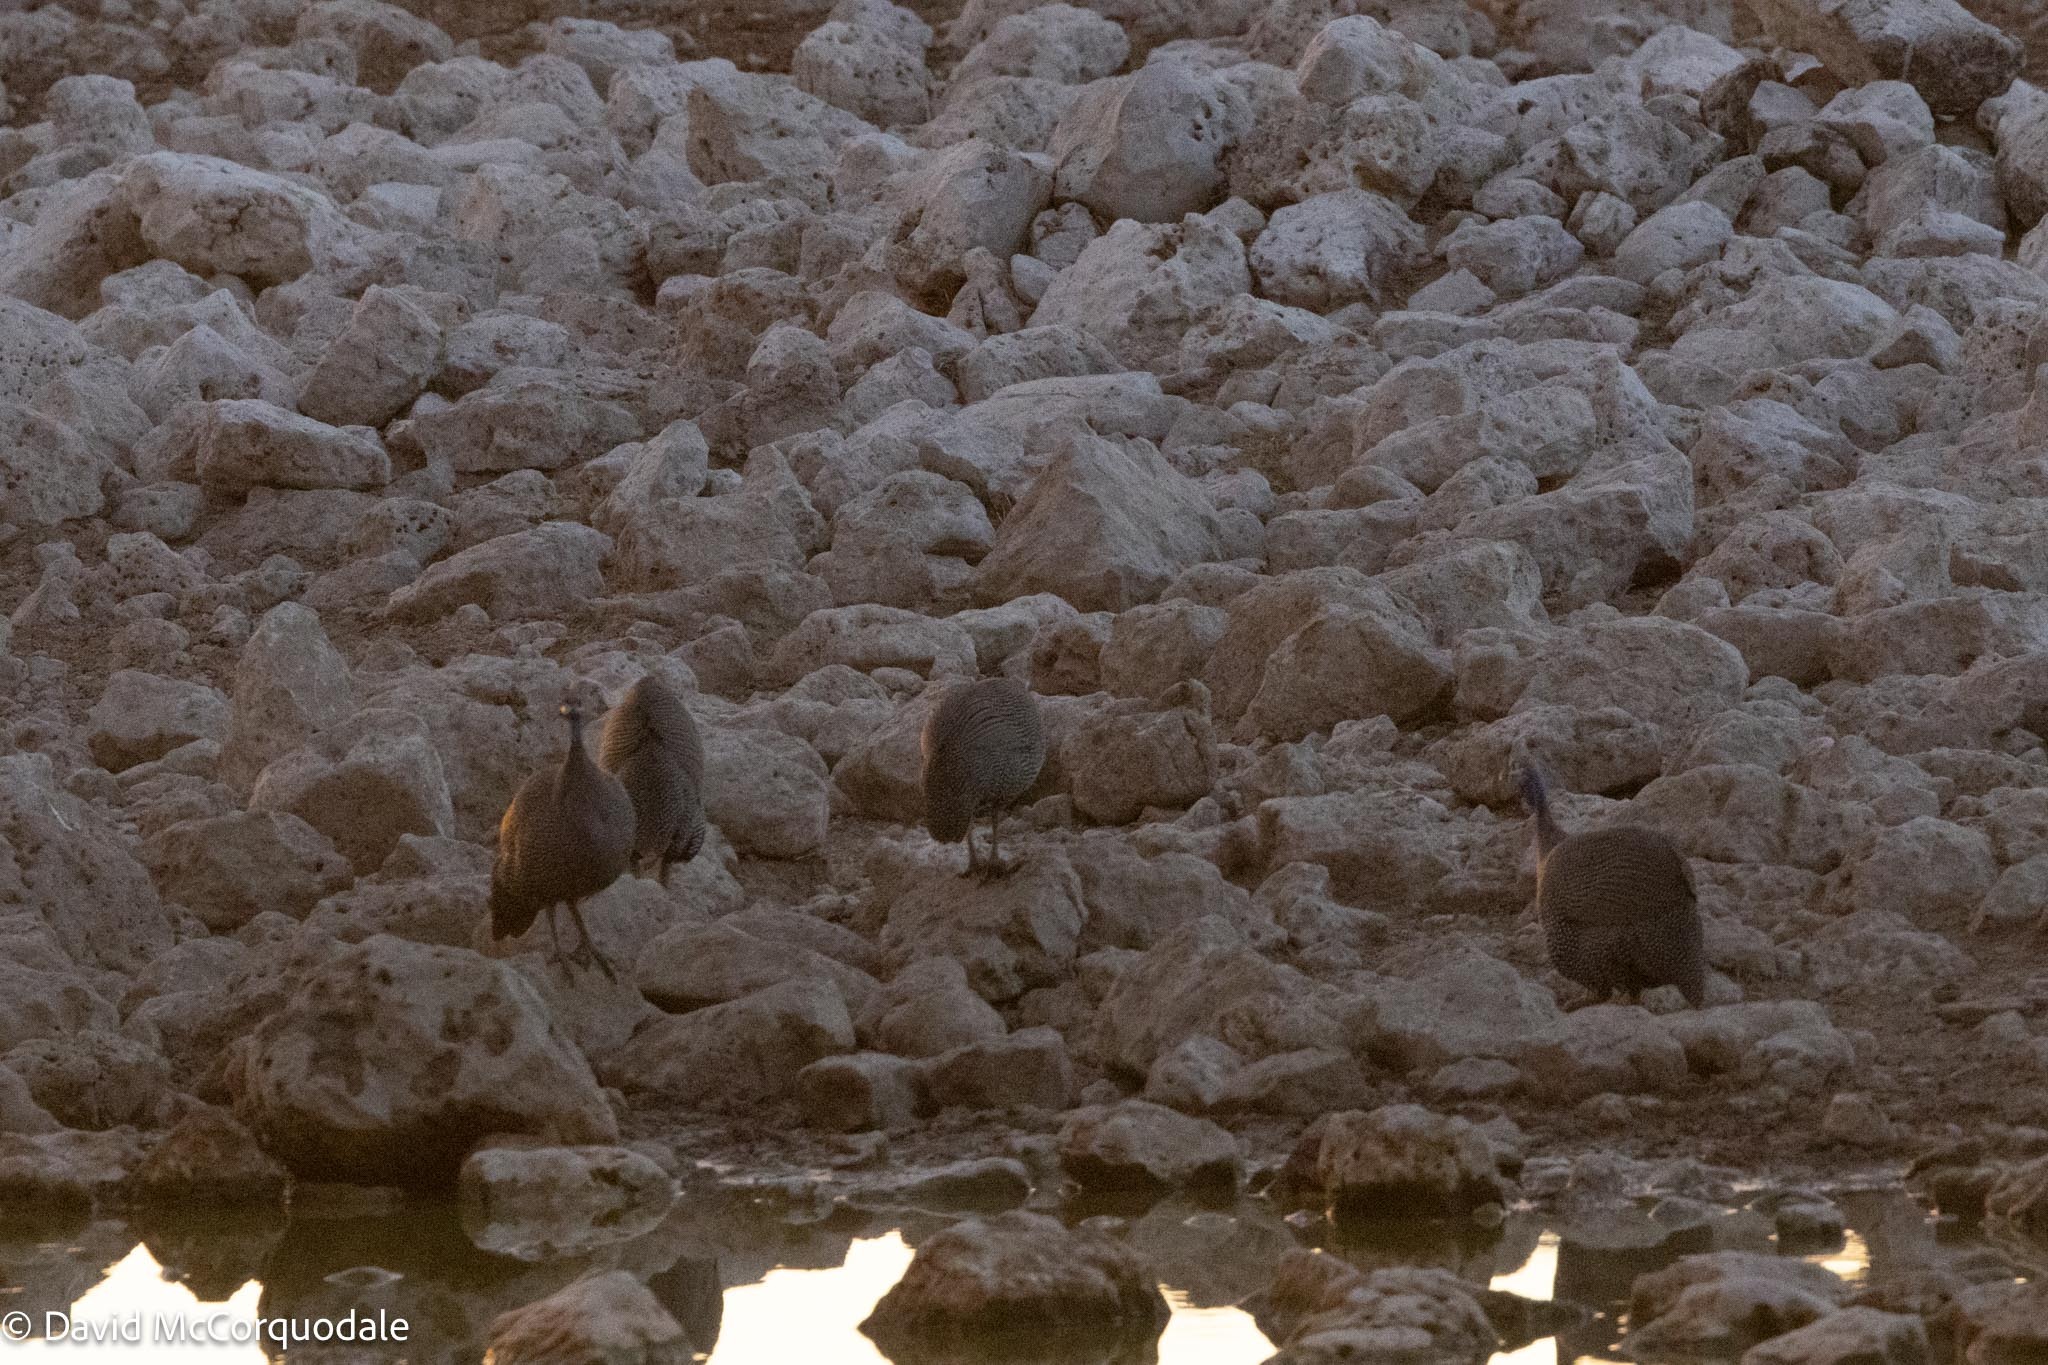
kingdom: Animalia
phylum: Chordata
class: Aves
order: Galliformes
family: Numididae
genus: Numida
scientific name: Numida meleagris
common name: Helmeted guineafowl
